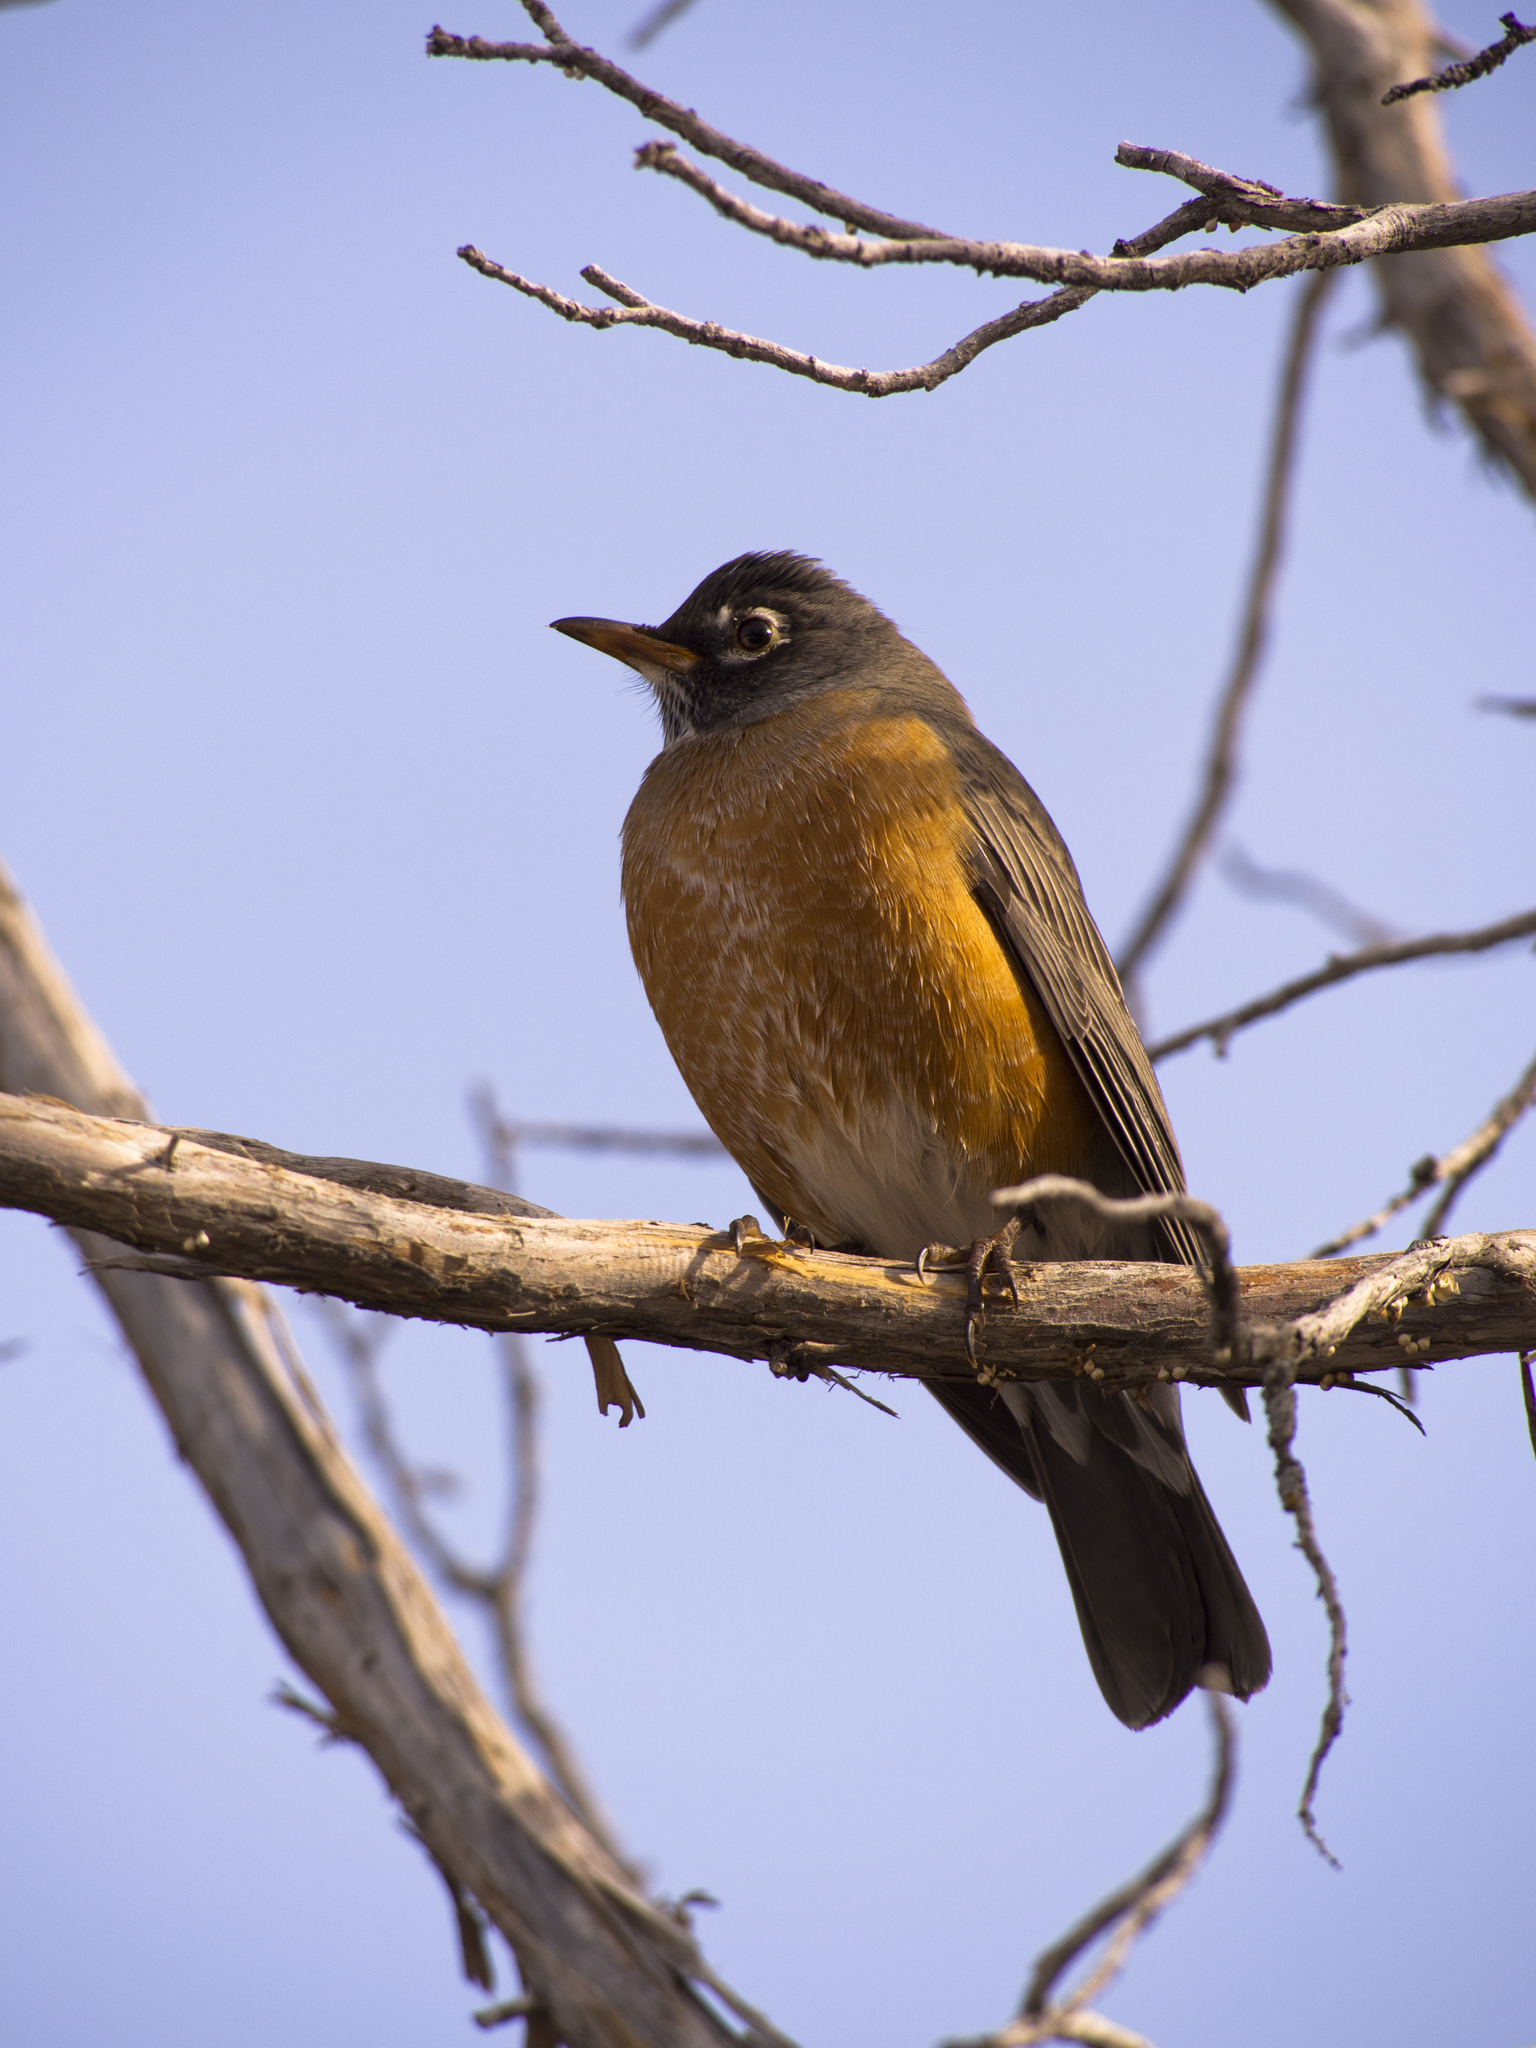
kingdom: Animalia
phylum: Chordata
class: Aves
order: Passeriformes
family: Turdidae
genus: Turdus
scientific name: Turdus migratorius
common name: American robin
